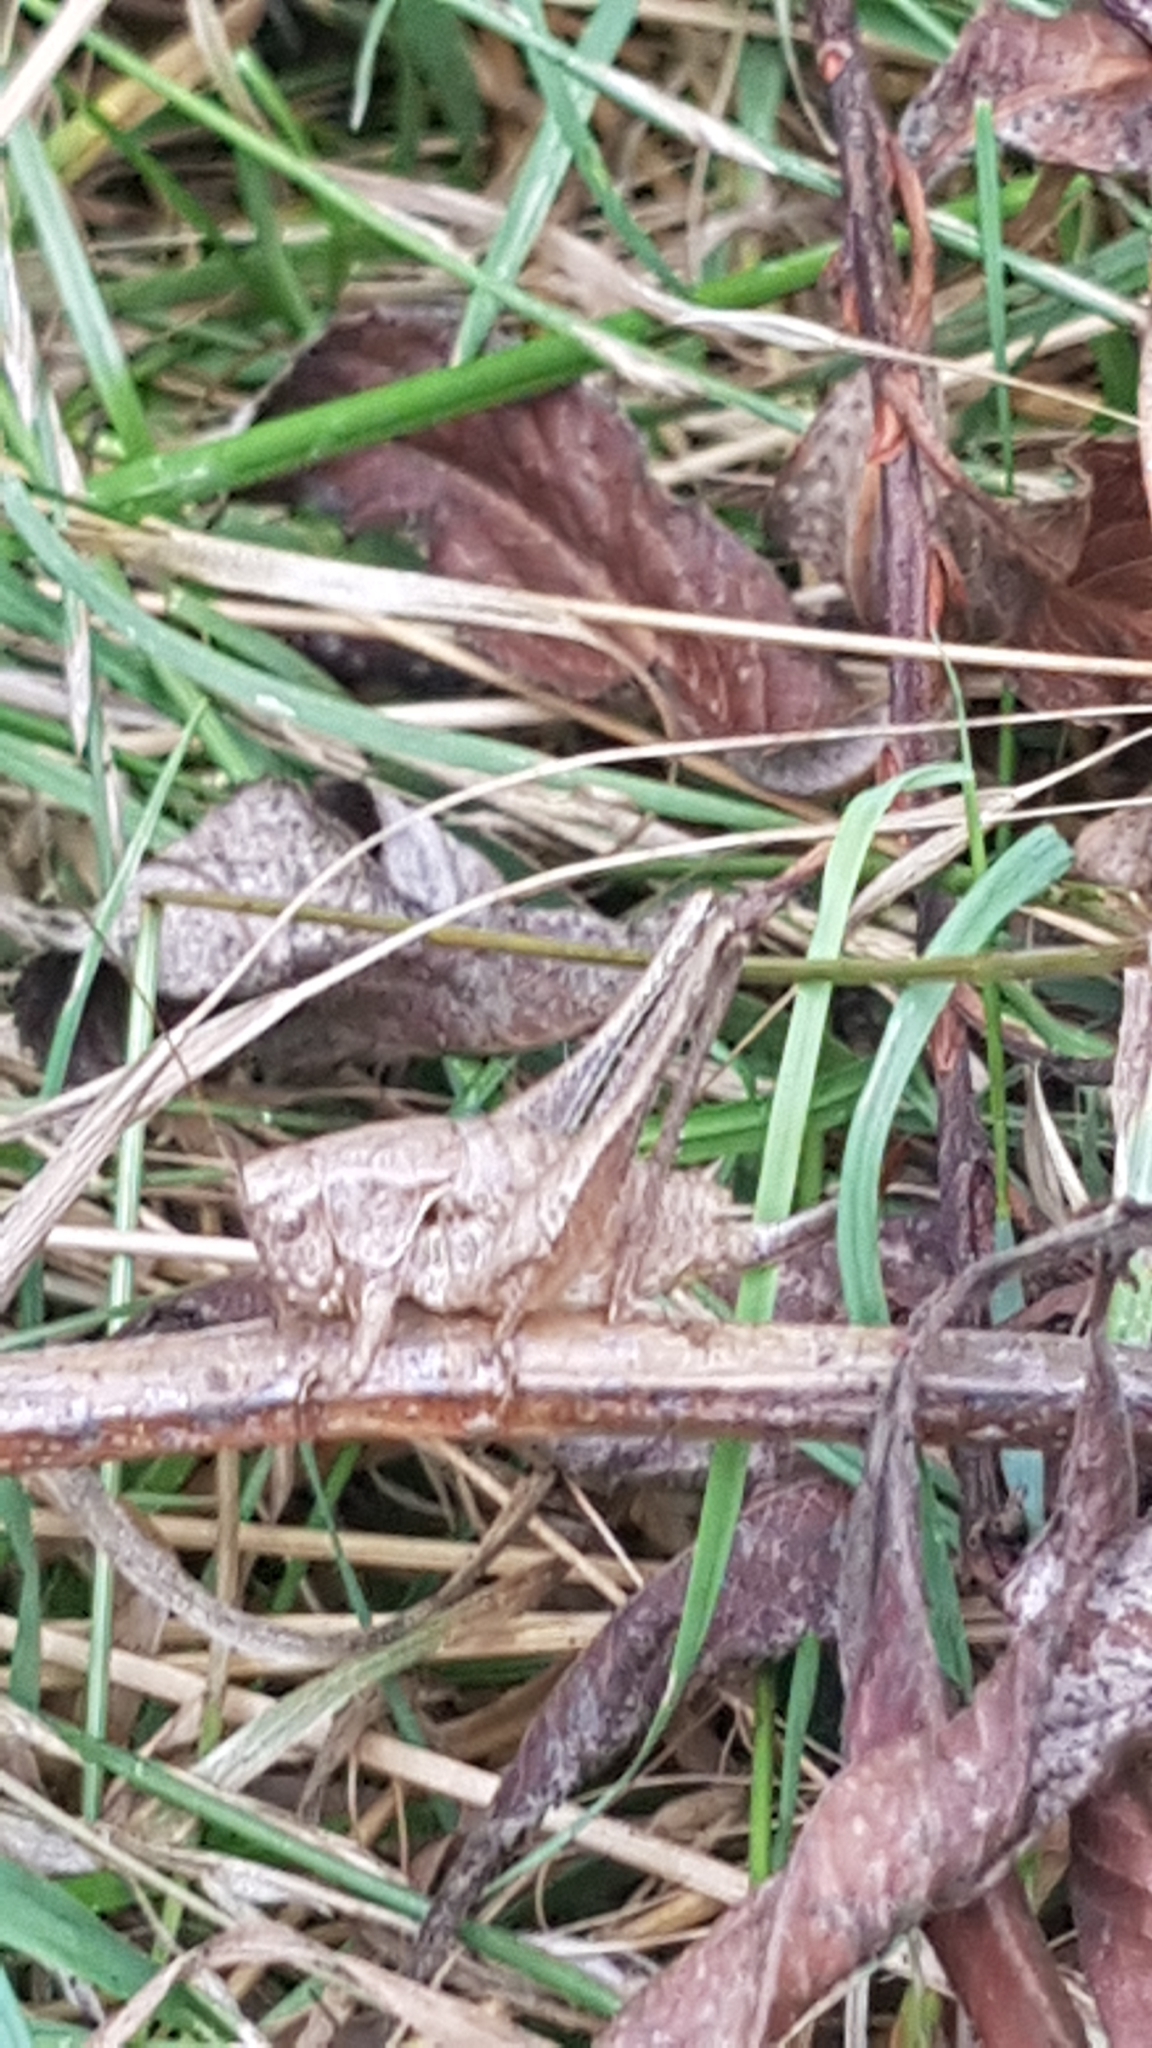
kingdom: Animalia
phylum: Arthropoda
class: Insecta
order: Orthoptera
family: Tettigoniidae
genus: Pholidoptera
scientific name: Pholidoptera griseoaptera
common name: Dark bush-cricket
